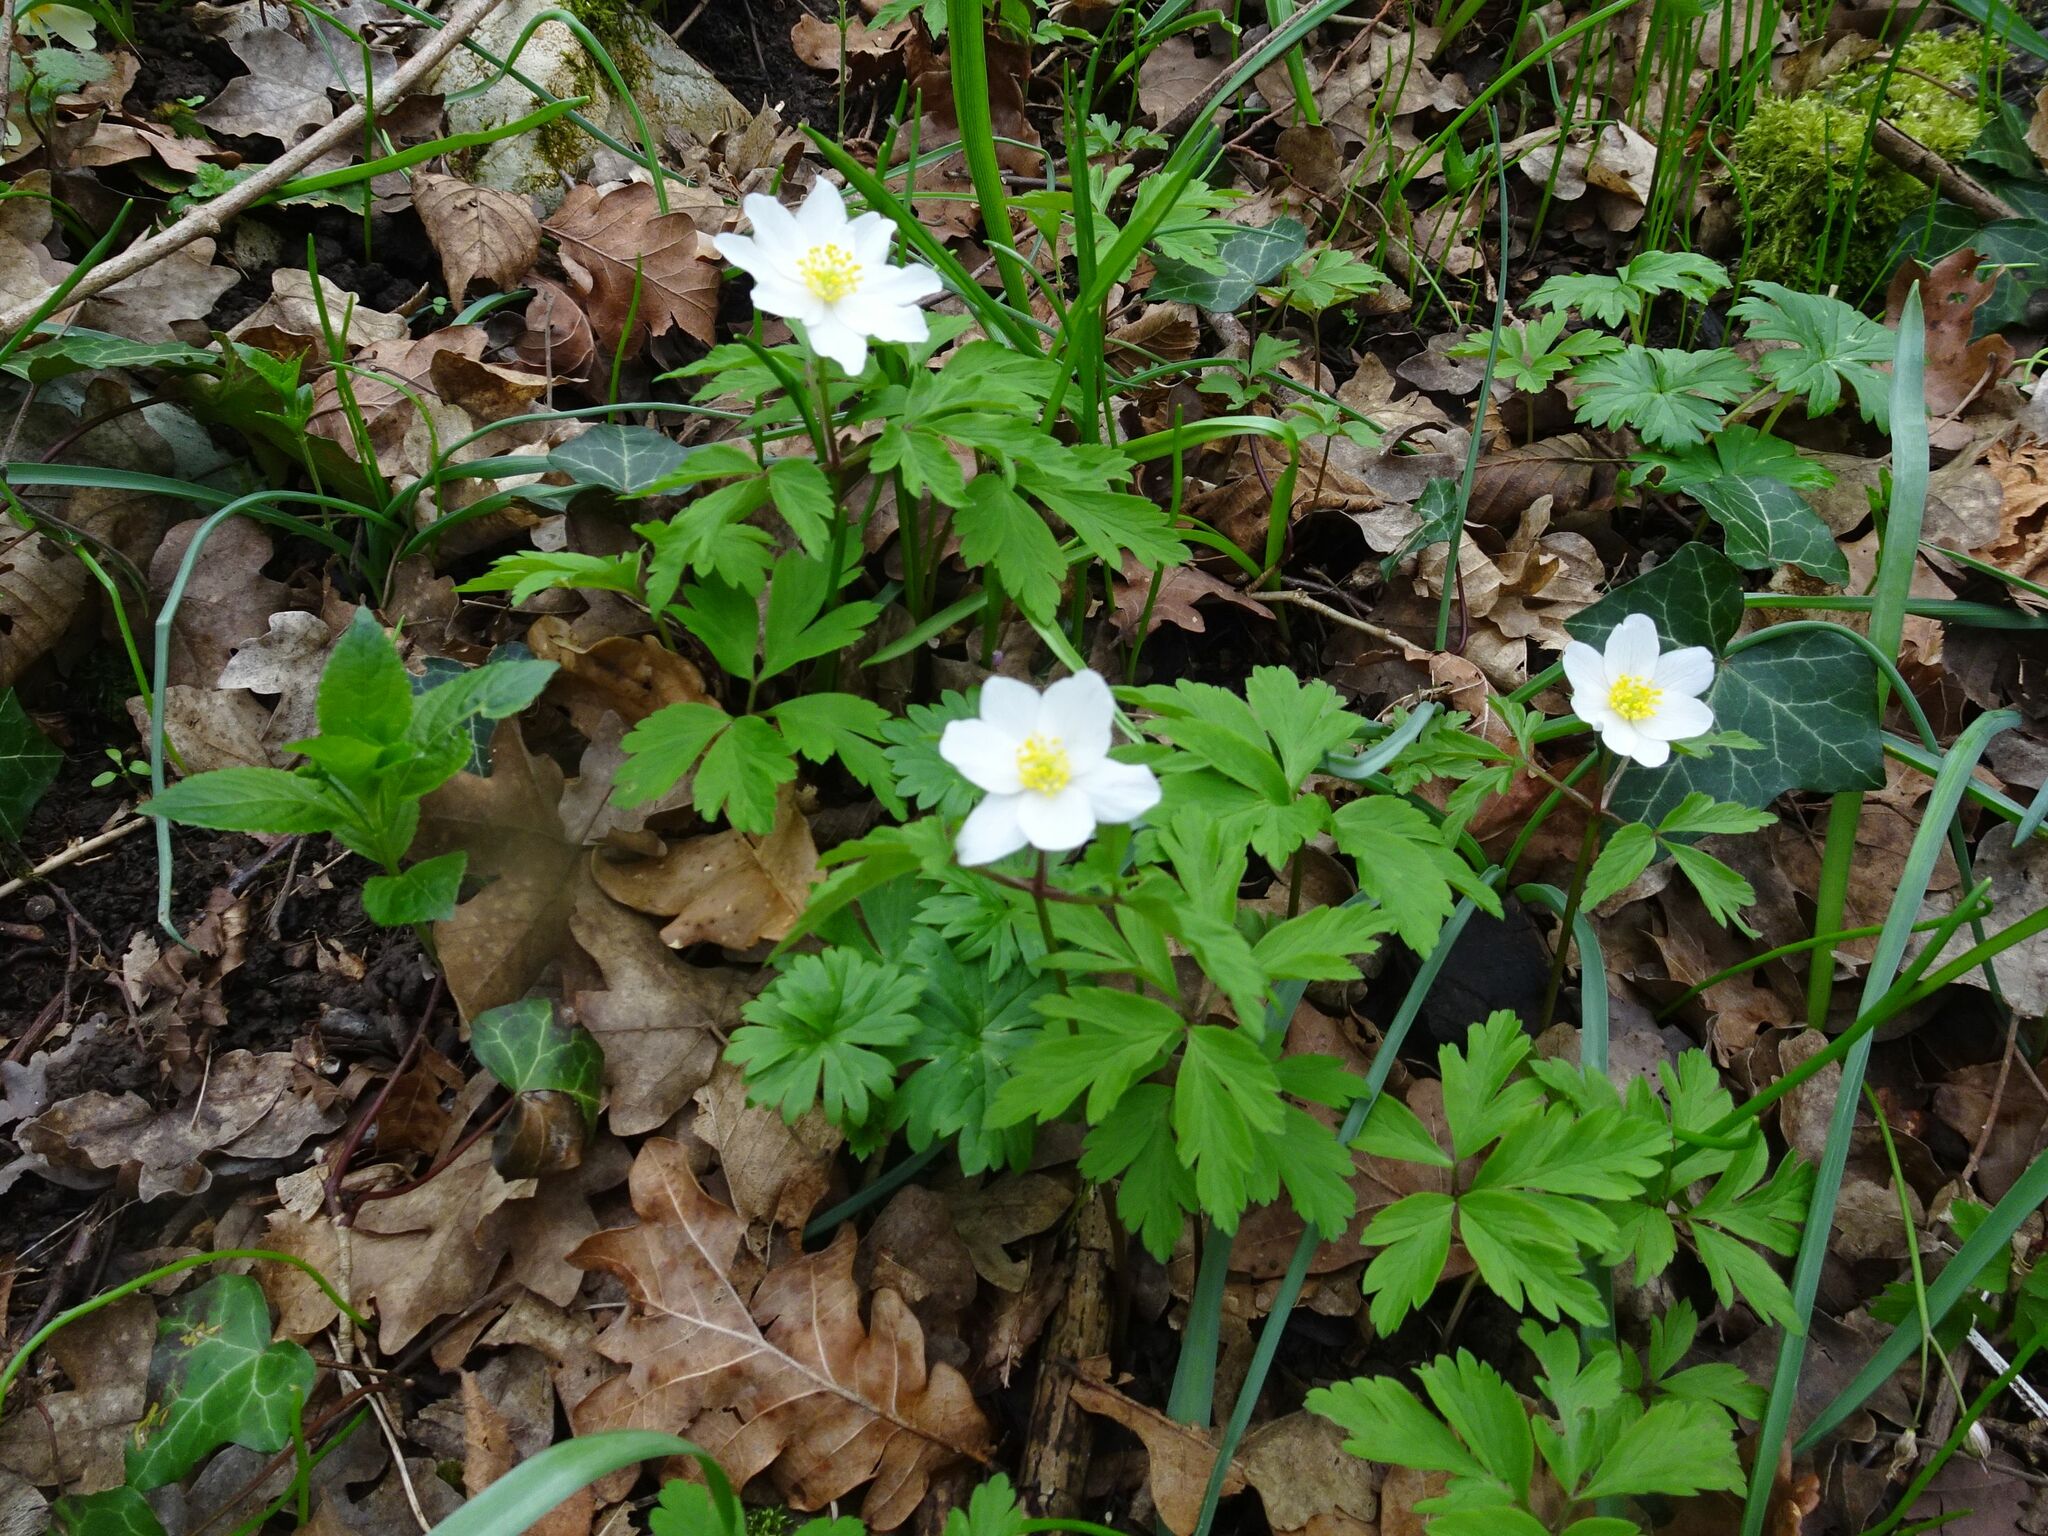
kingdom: Plantae
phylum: Tracheophyta
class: Magnoliopsida
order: Ranunculales
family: Ranunculaceae
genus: Anemone
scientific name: Anemone nemorosa
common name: Wood anemone
